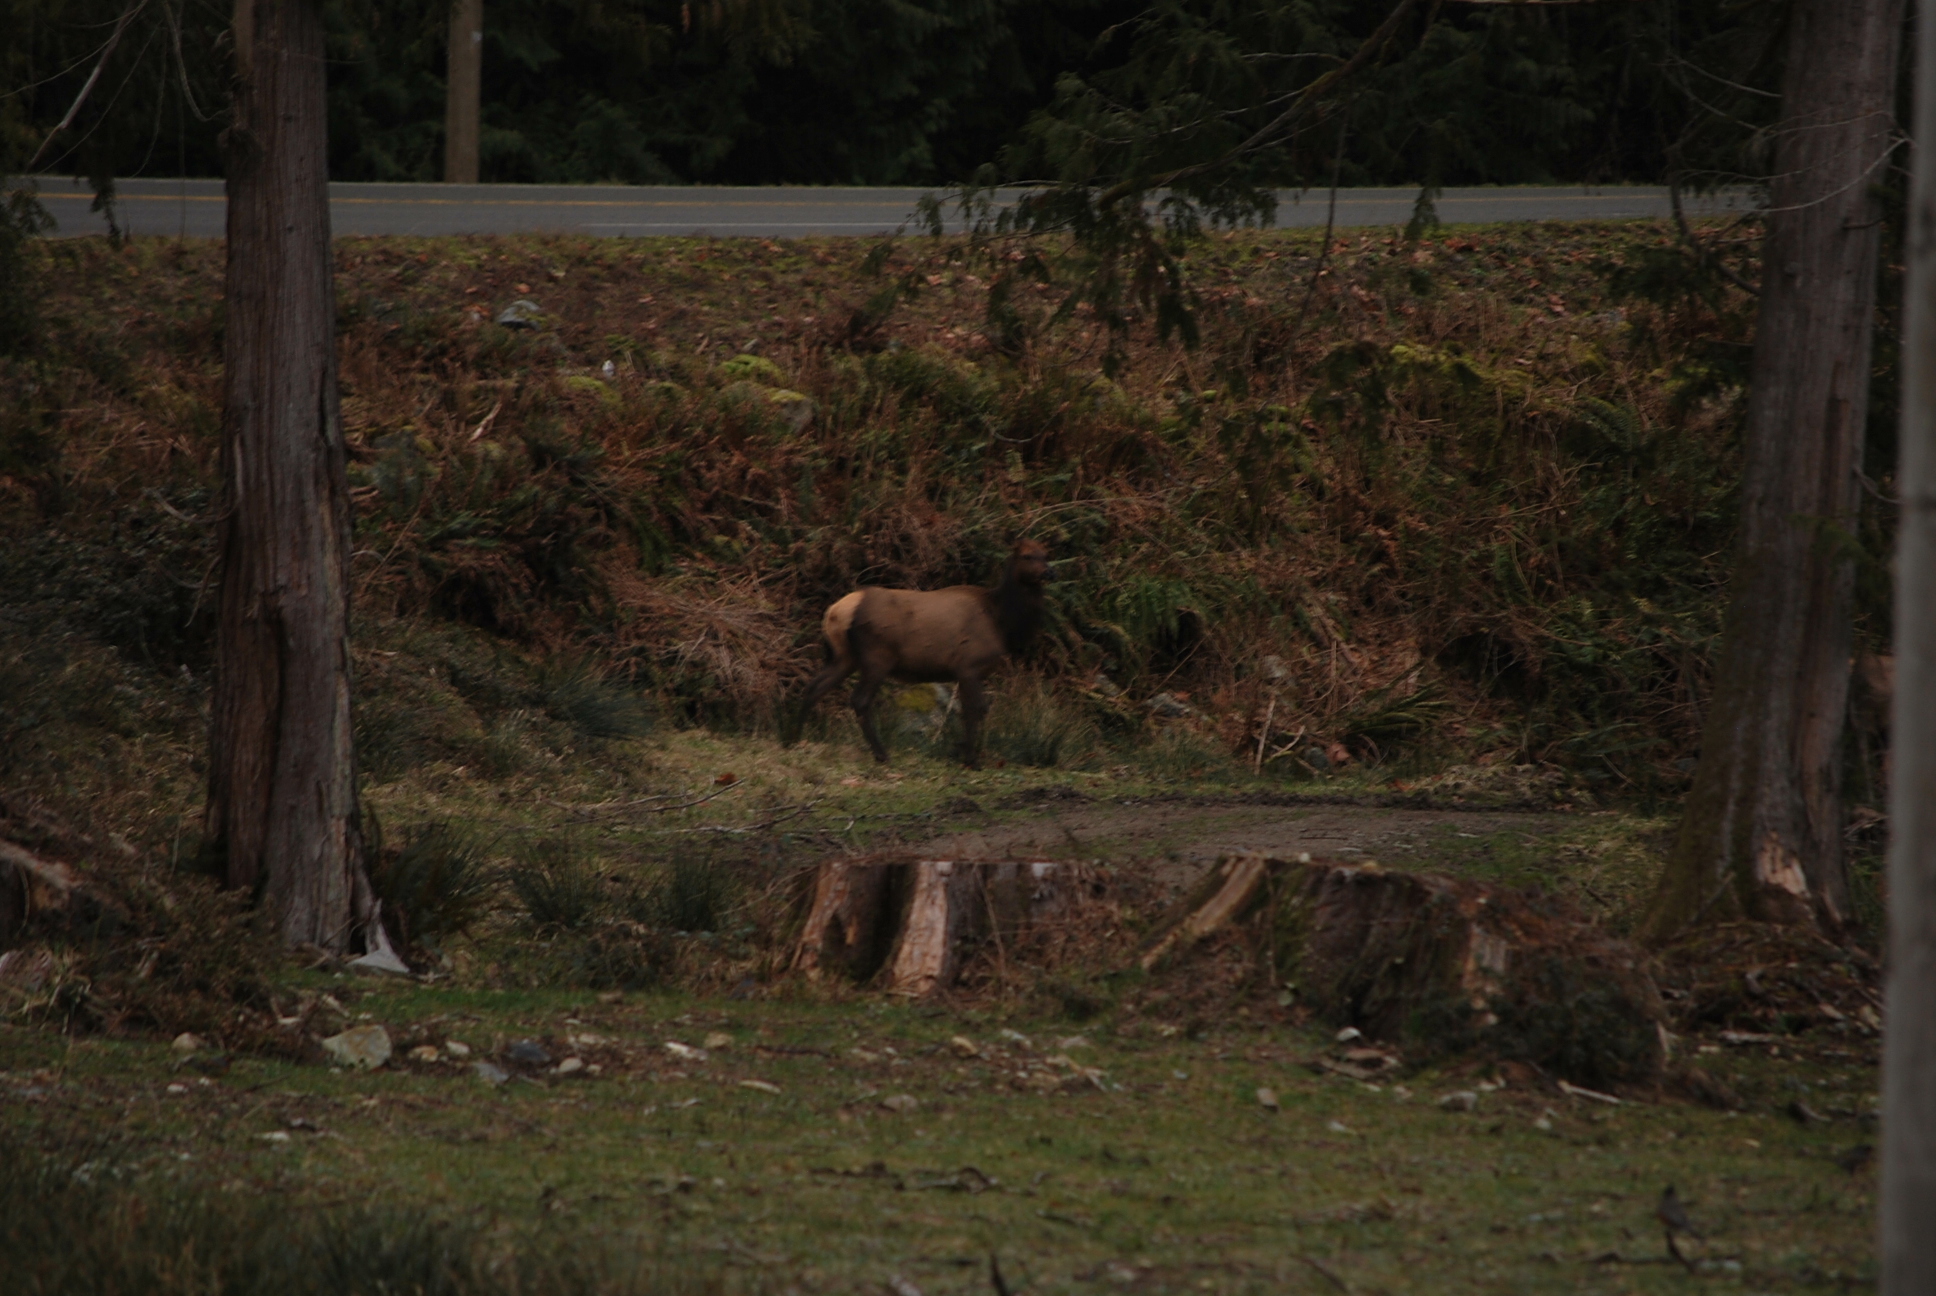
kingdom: Animalia
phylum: Chordata
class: Mammalia
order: Artiodactyla
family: Cervidae
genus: Cervus
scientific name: Cervus elaphus
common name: Red deer
